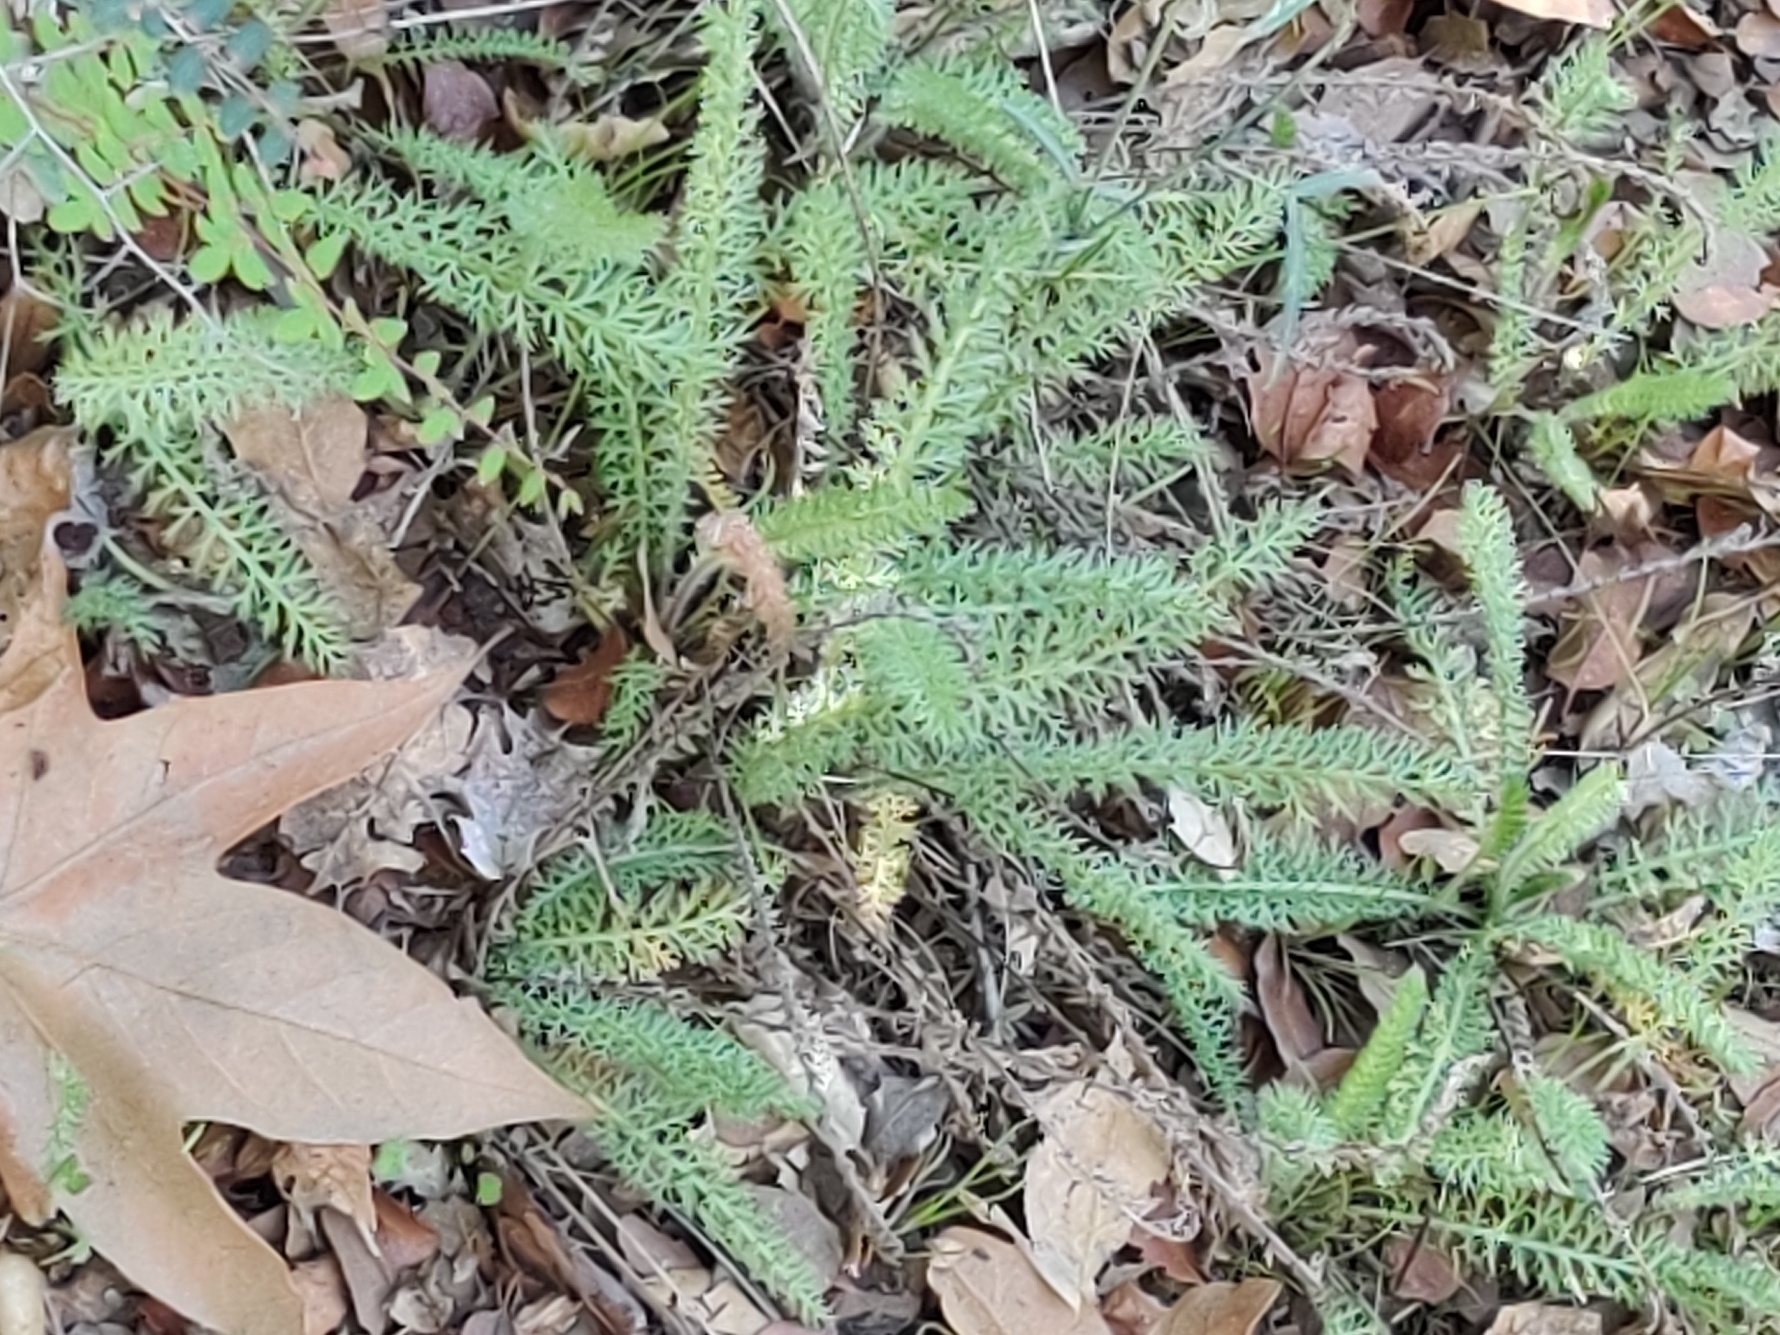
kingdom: Plantae
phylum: Tracheophyta
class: Magnoliopsida
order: Asterales
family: Asteraceae
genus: Achillea
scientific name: Achillea millefolium
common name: Yarrow
